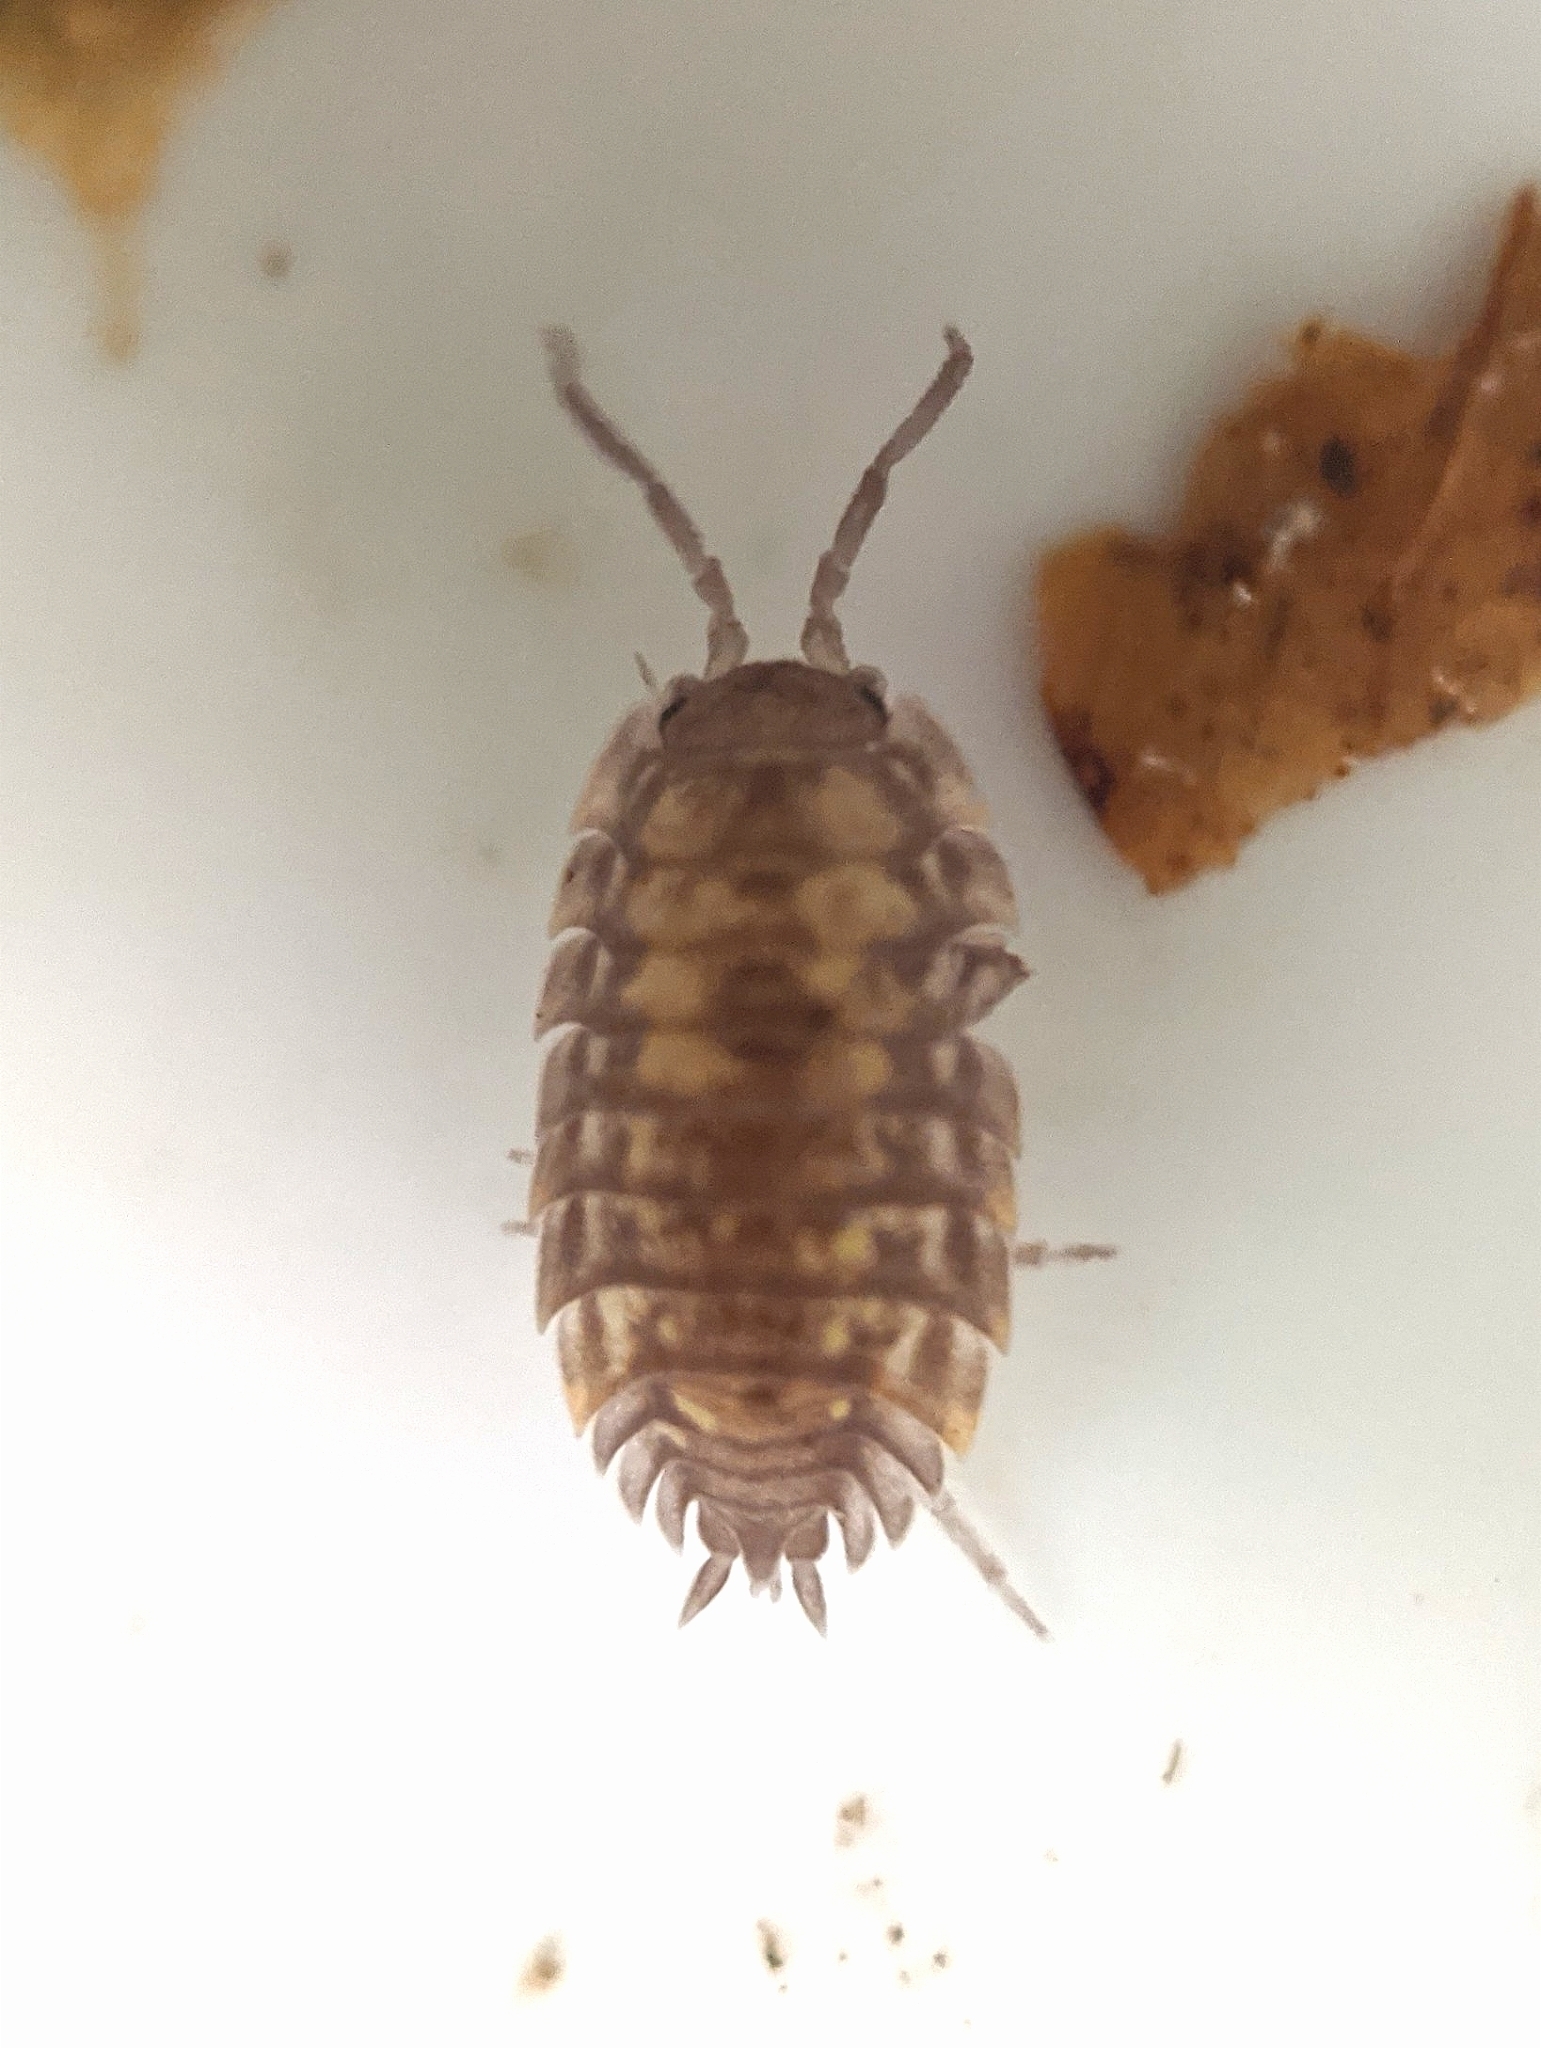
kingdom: Animalia
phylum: Arthropoda
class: Malacostraca
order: Isopoda
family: Oniscidae
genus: Oniscus
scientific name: Oniscus asellus
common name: Common shiny woodlouse
